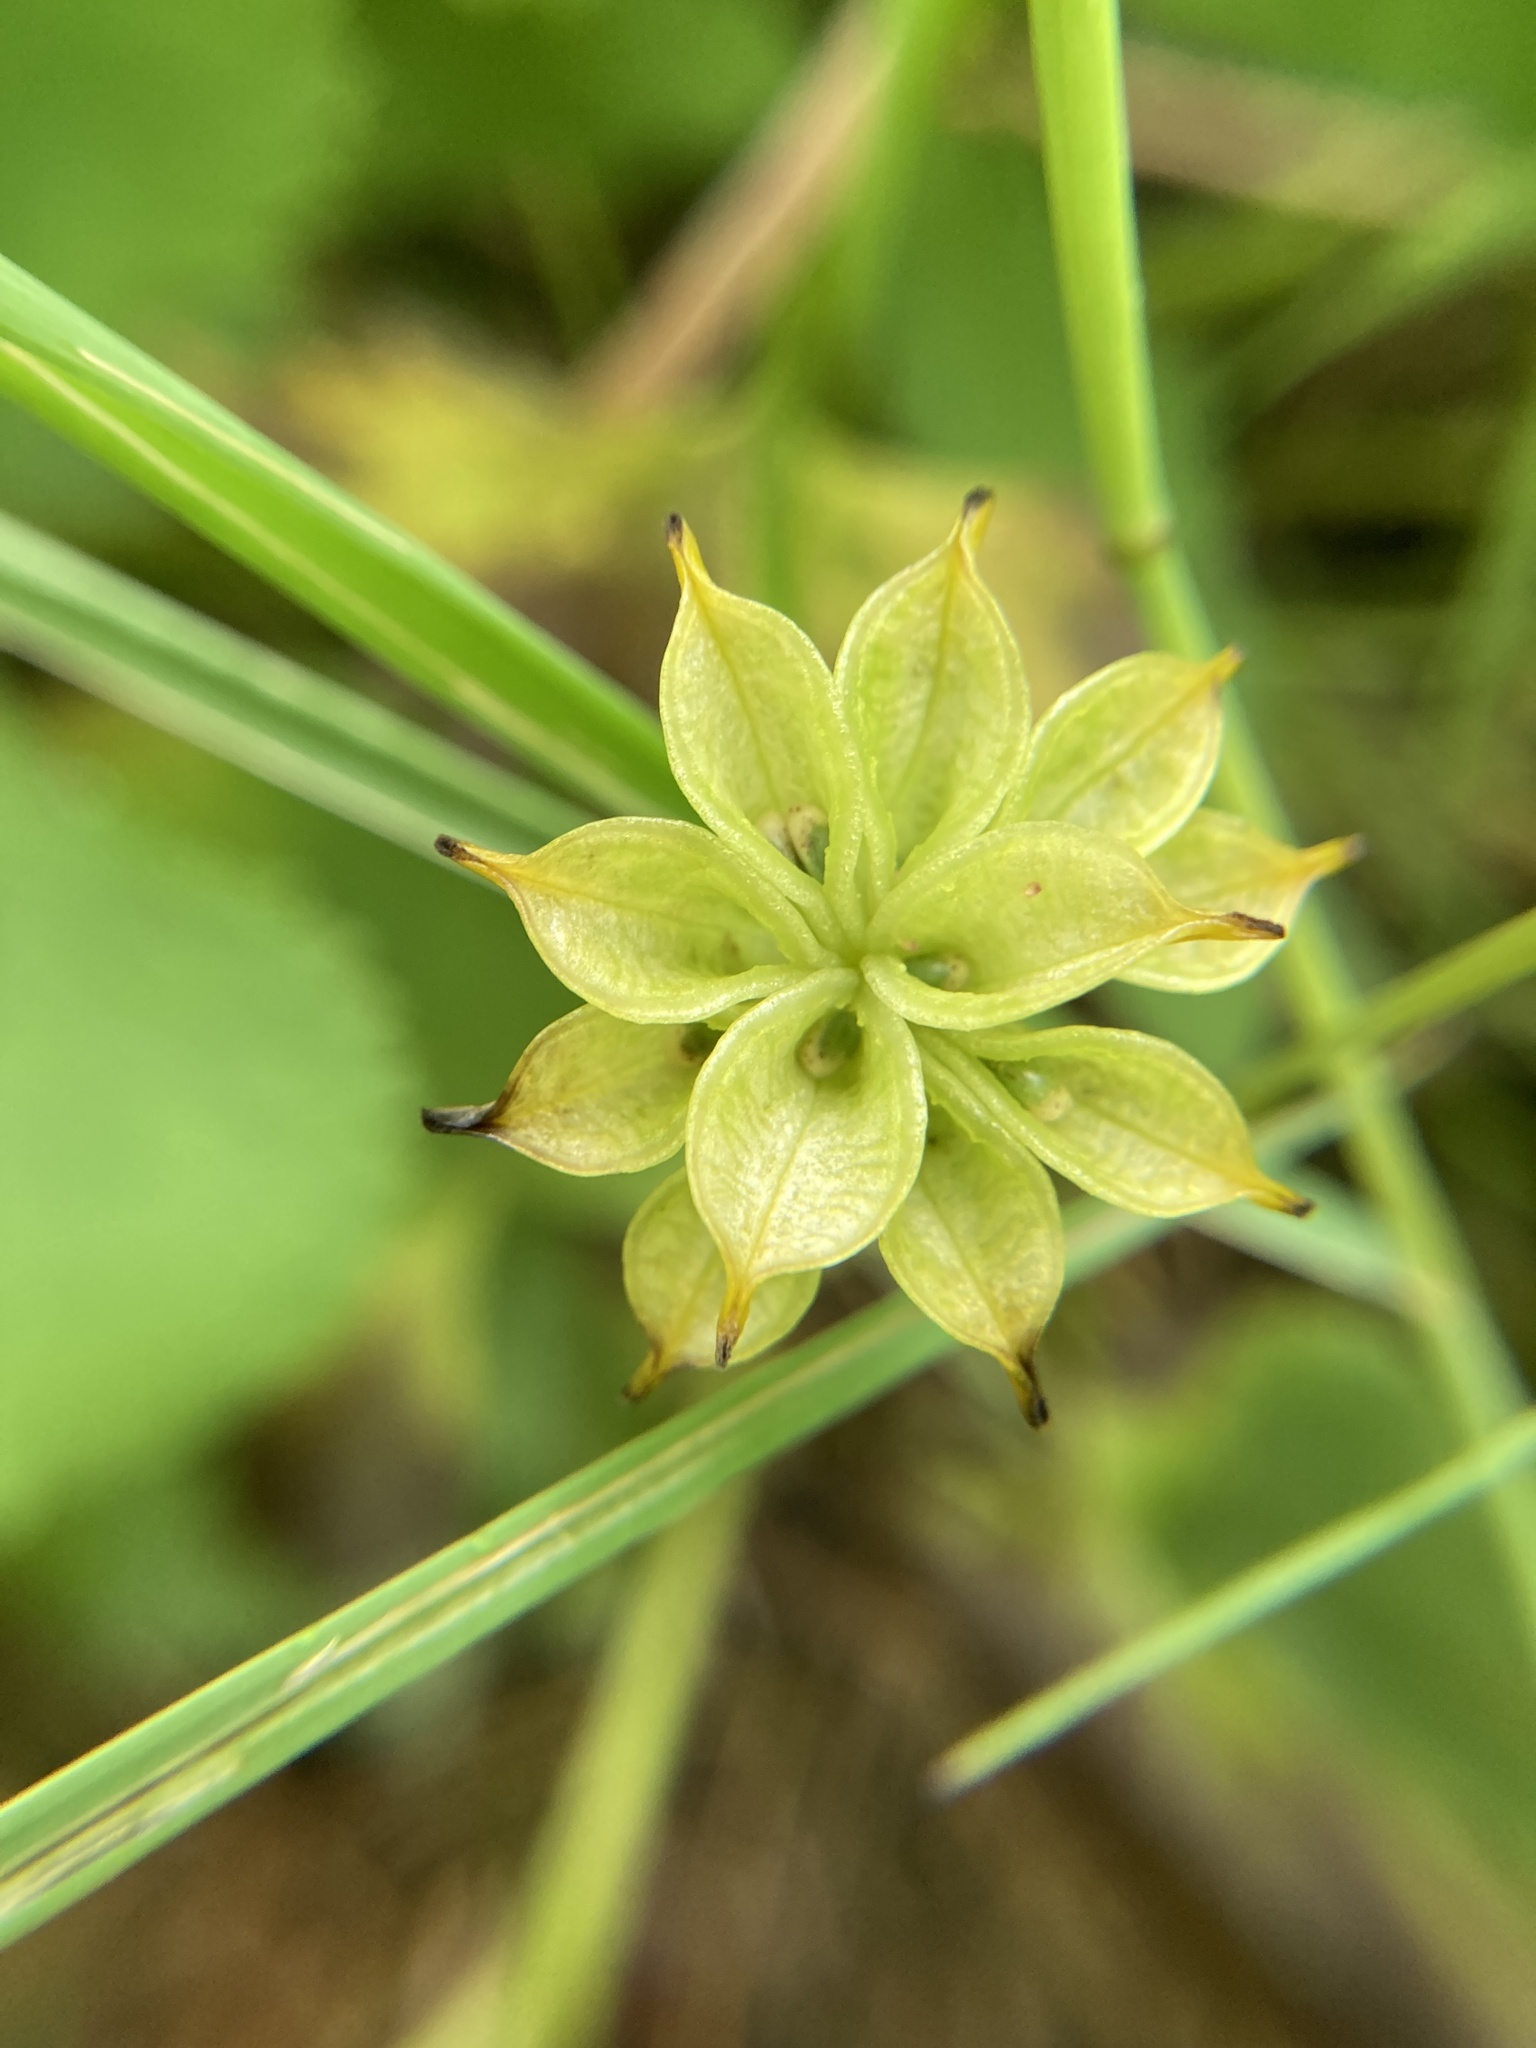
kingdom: Plantae
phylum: Tracheophyta
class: Magnoliopsida
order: Ranunculales
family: Ranunculaceae
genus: Caltha
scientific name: Caltha palustris
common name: Marsh marigold
